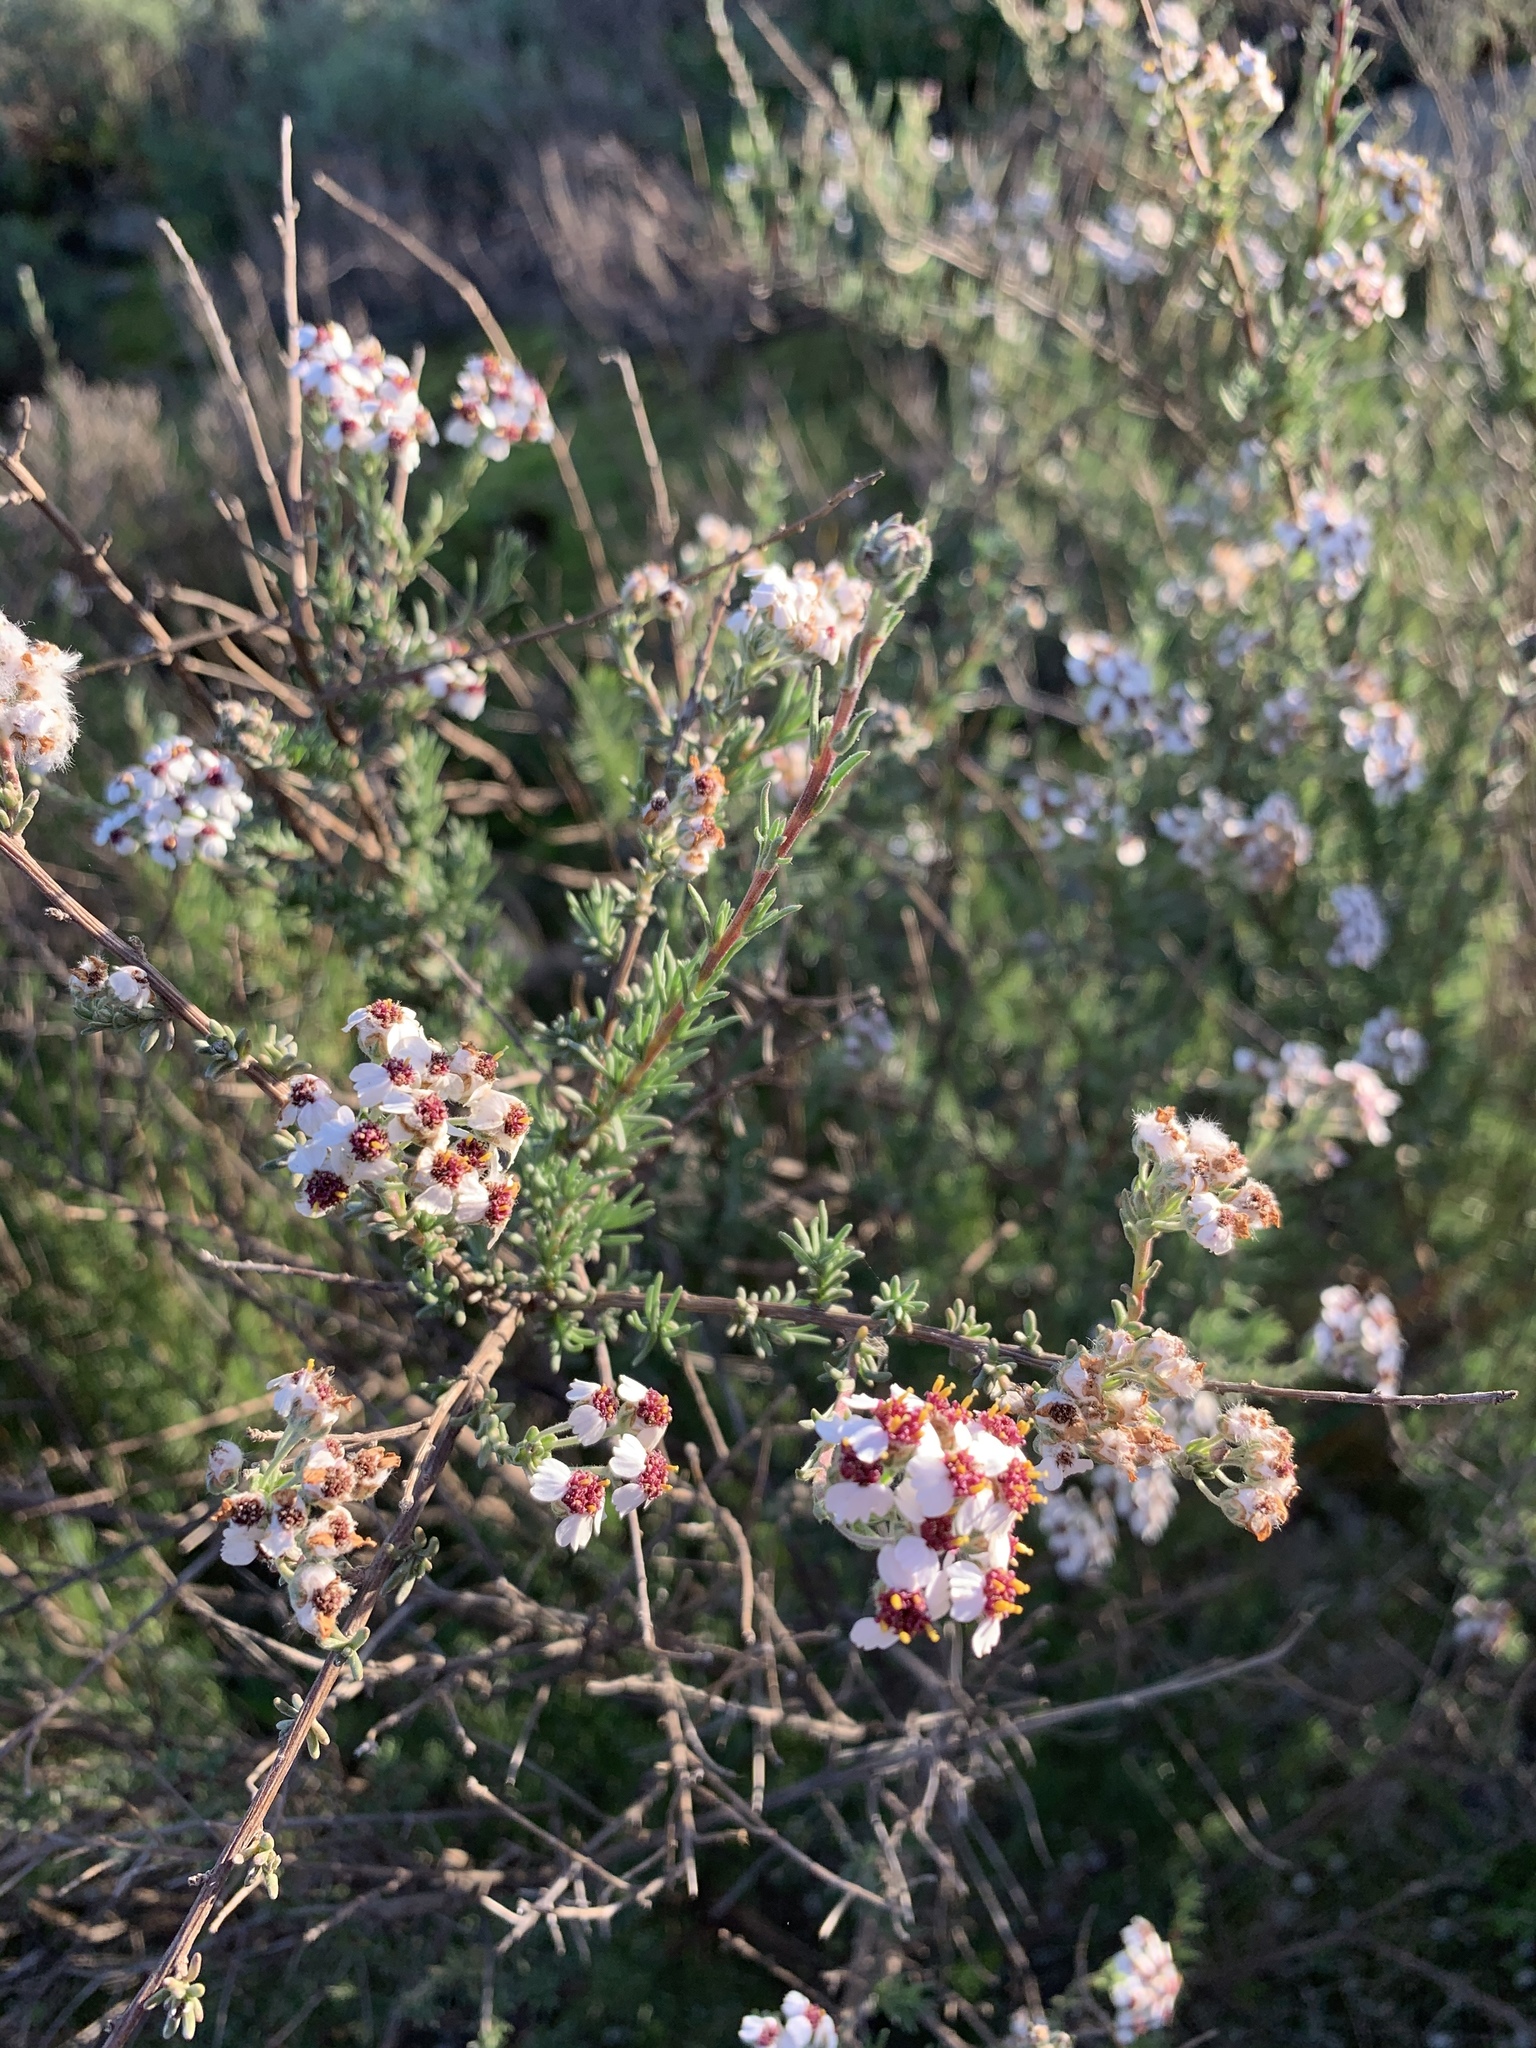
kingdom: Plantae
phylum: Tracheophyta
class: Magnoliopsida
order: Asterales
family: Asteraceae
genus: Eriocephalus
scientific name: Eriocephalus africanus
